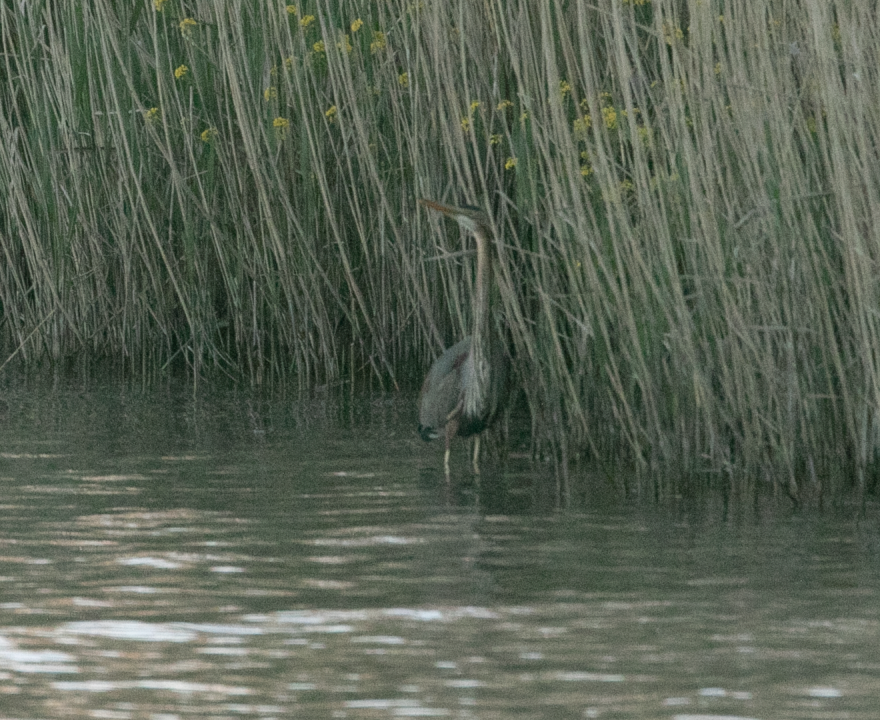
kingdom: Animalia
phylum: Chordata
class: Aves
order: Pelecaniformes
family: Ardeidae
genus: Ardea
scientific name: Ardea purpurea
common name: Purple heron
